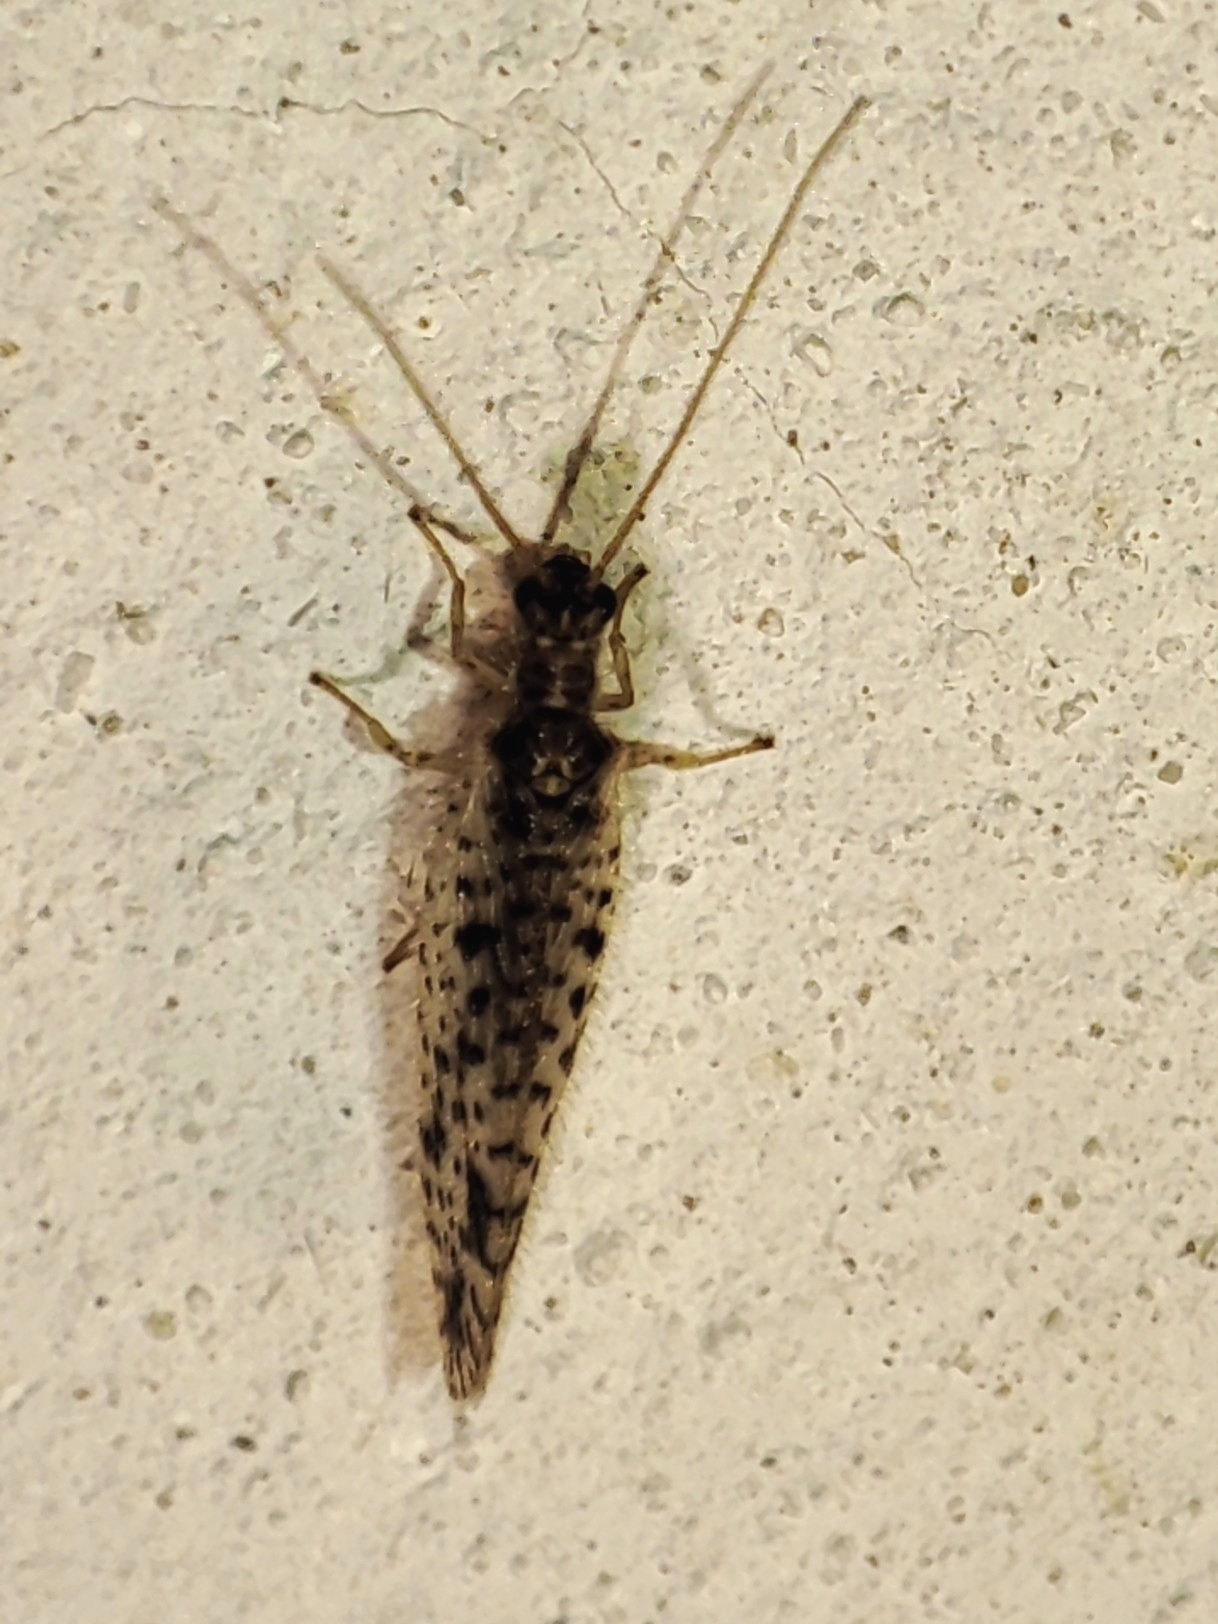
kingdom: Animalia
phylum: Arthropoda
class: Insecta
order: Neuroptera
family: Hemerobiidae
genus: Micromus
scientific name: Micromus variegatus
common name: Brown lacewing
